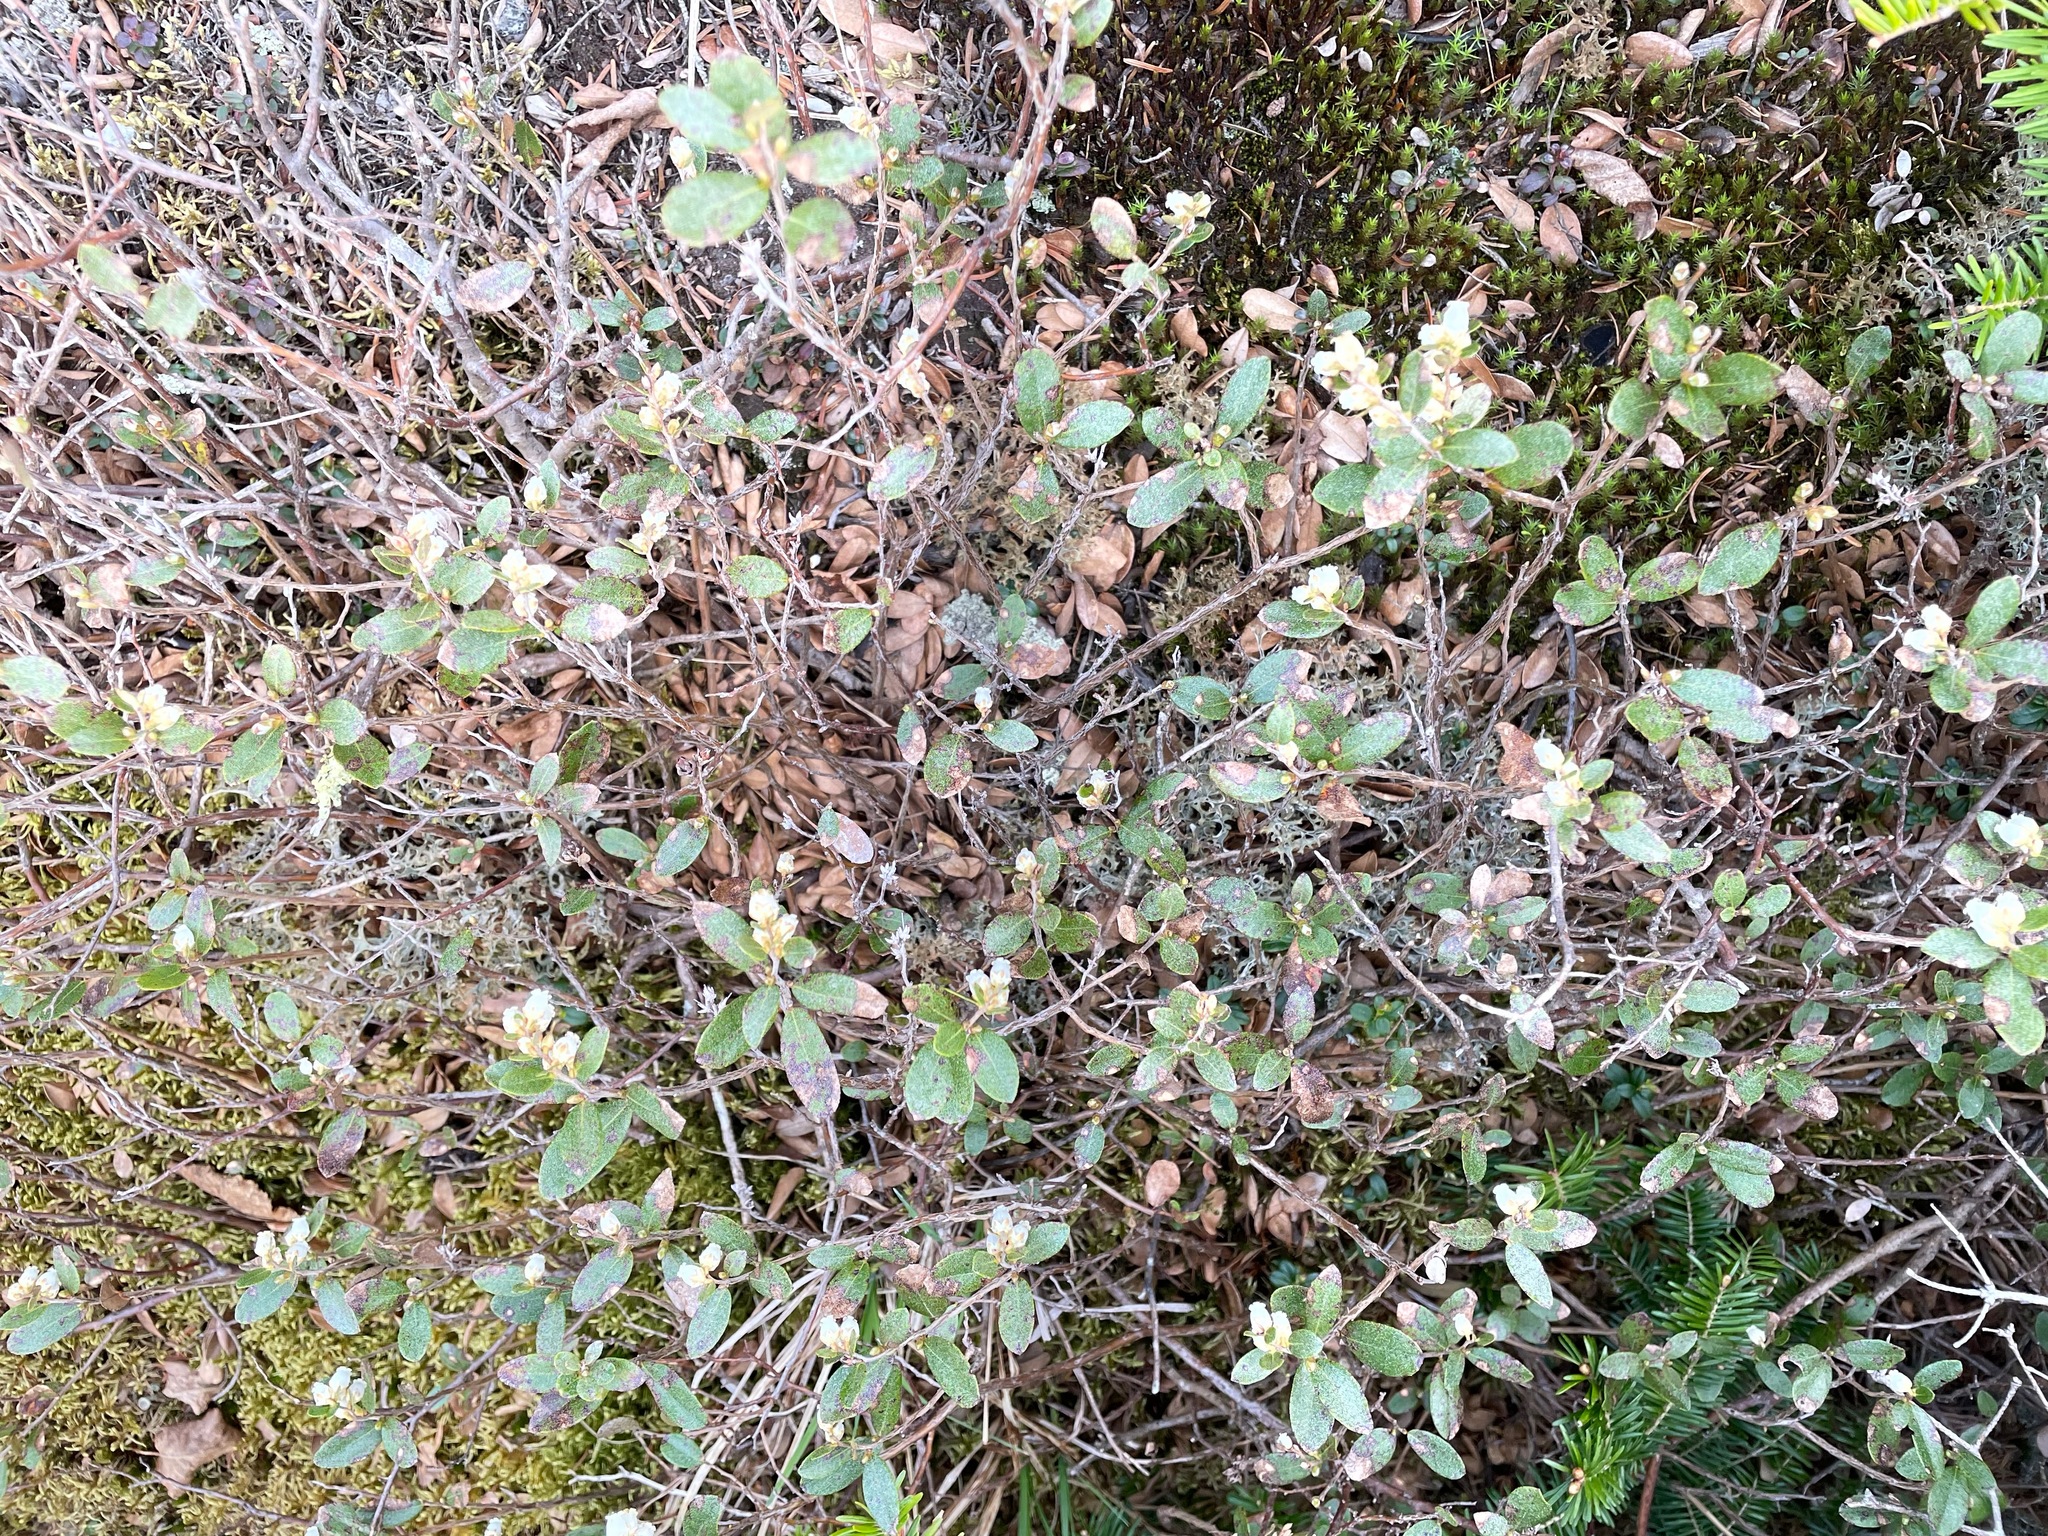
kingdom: Plantae
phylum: Tracheophyta
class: Magnoliopsida
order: Ericales
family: Ericaceae
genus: Chamaedaphne
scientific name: Chamaedaphne calyculata
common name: Leatherleaf
